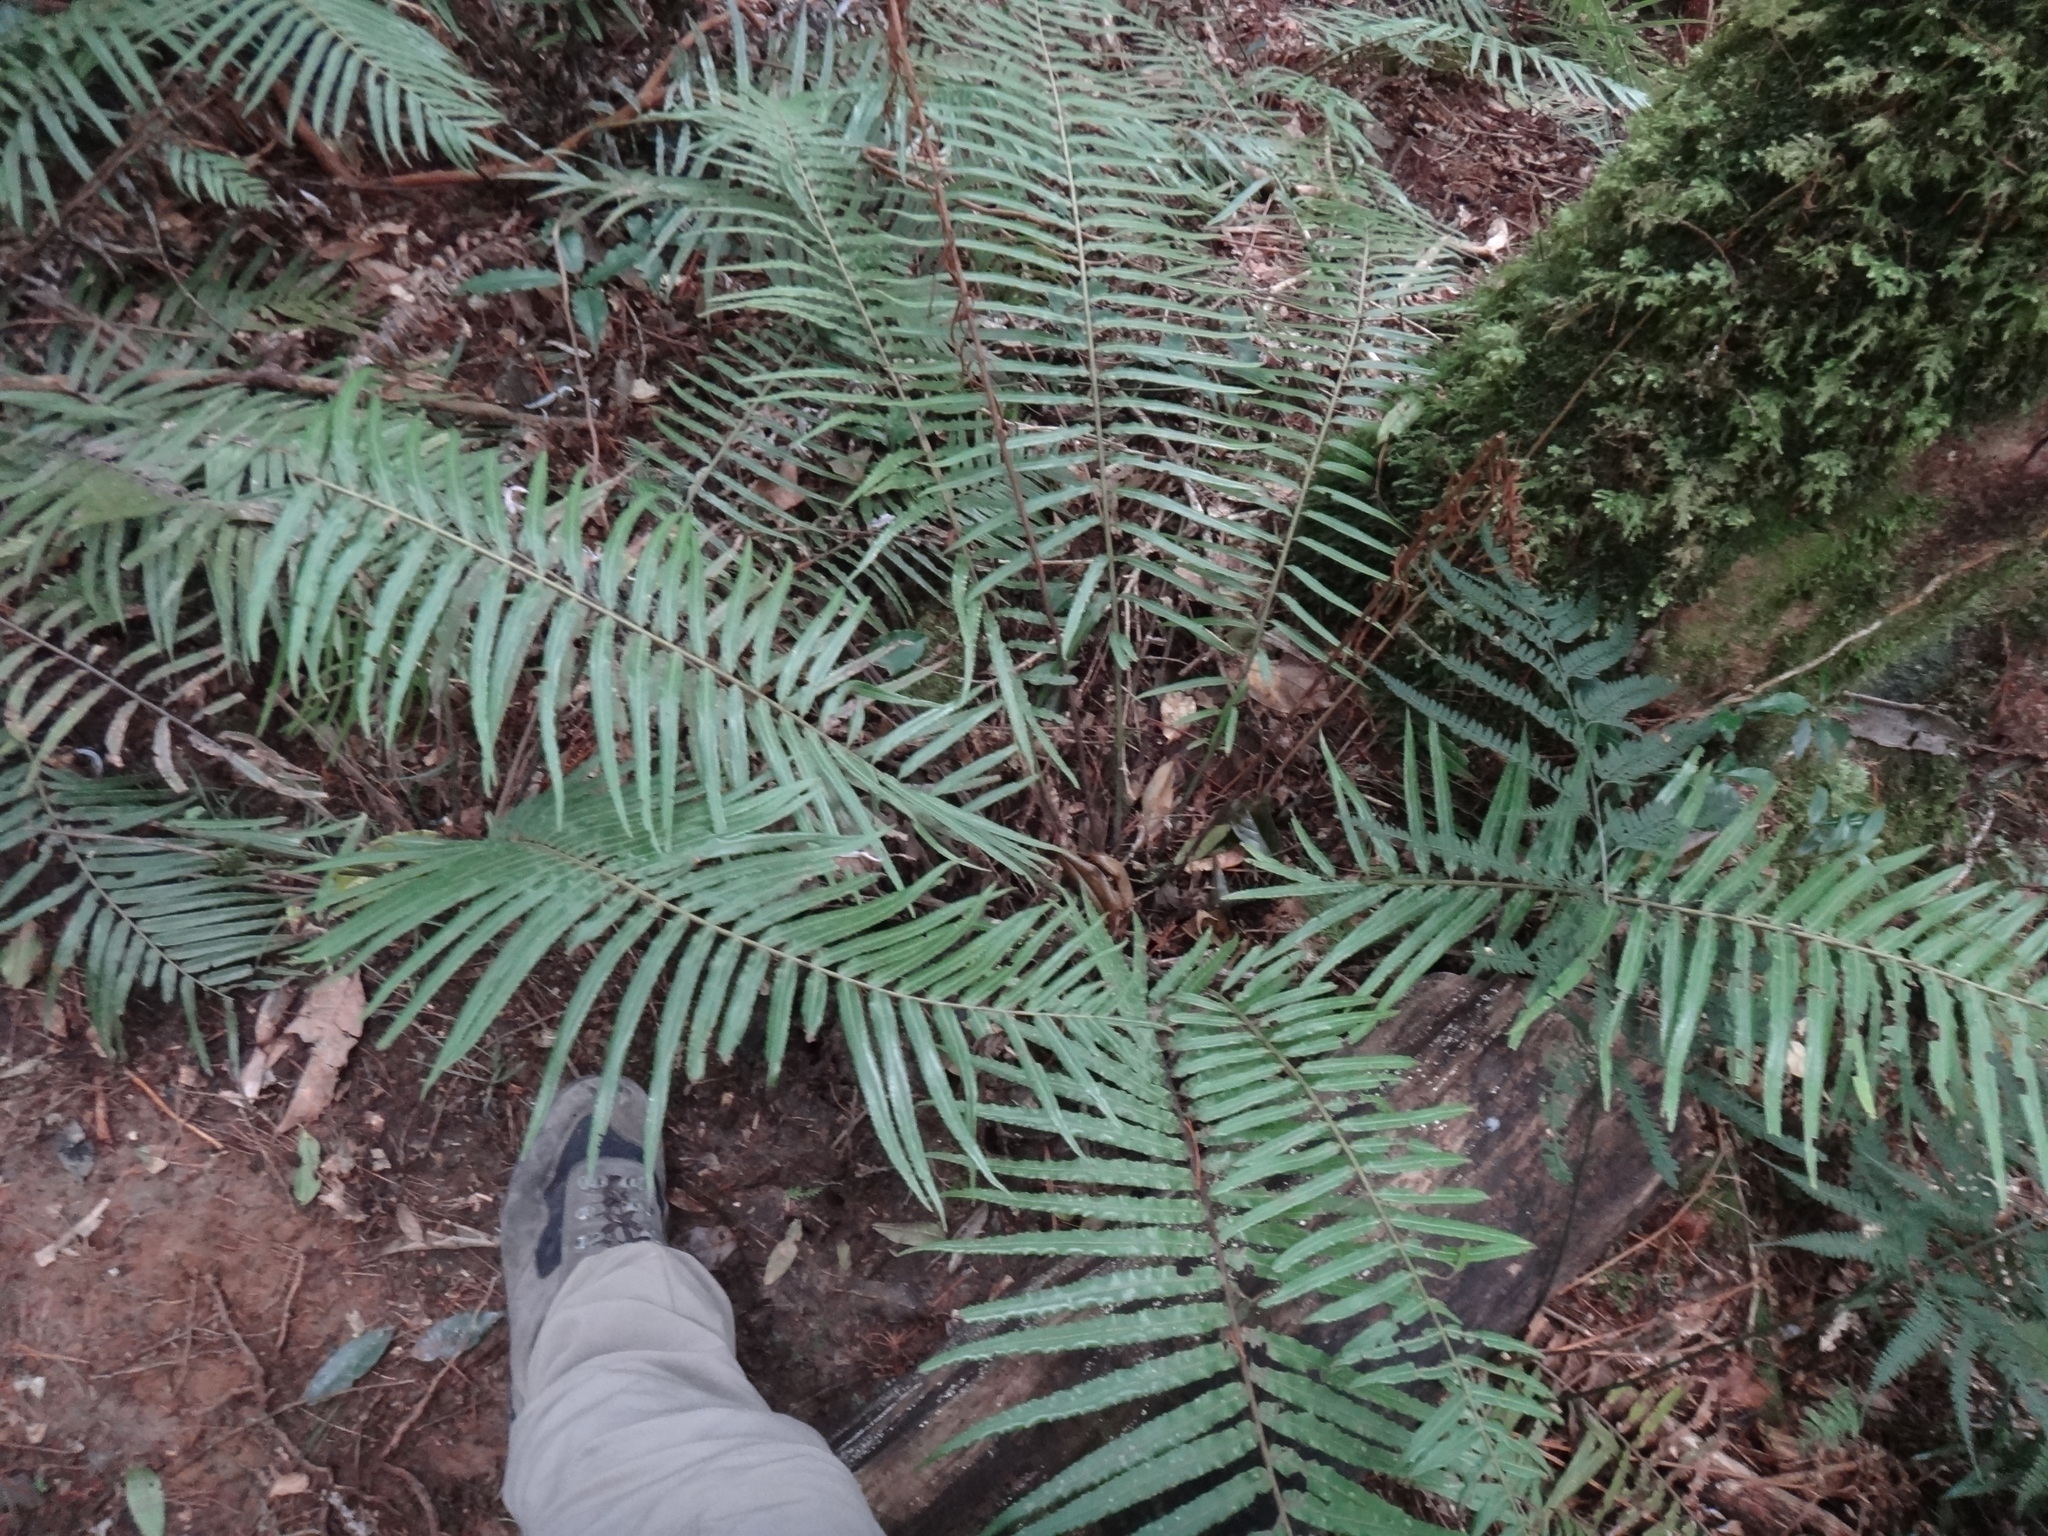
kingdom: Plantae
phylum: Tracheophyta
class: Polypodiopsida
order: Cyatheales
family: Plagiogyriaceae
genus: Plagiogyria
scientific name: Plagiogyria glauca
